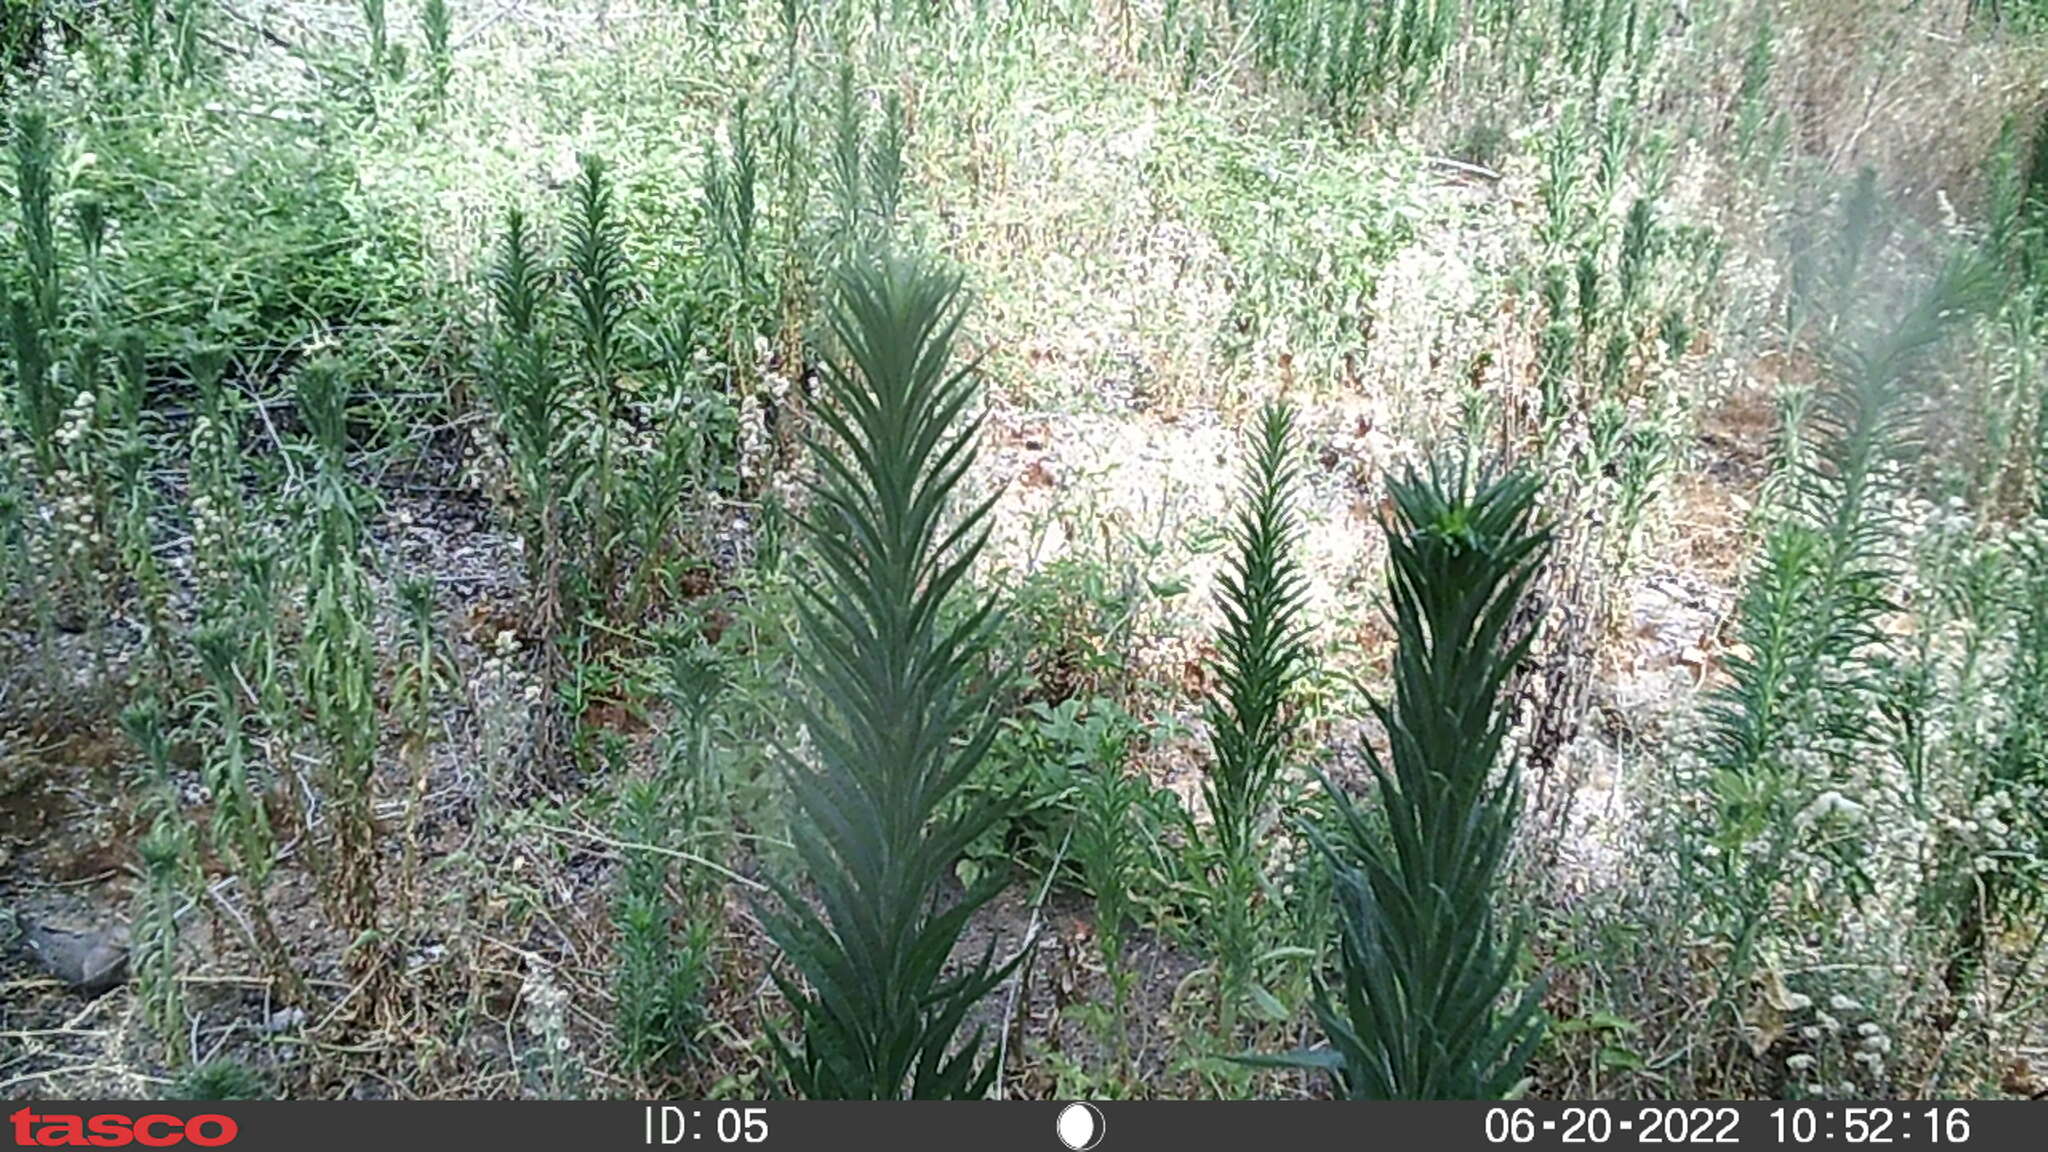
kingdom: Animalia
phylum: Chordata
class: Aves
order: Columbiformes
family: Columbidae
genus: Zenaida
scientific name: Zenaida macroura
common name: Mourning dove
